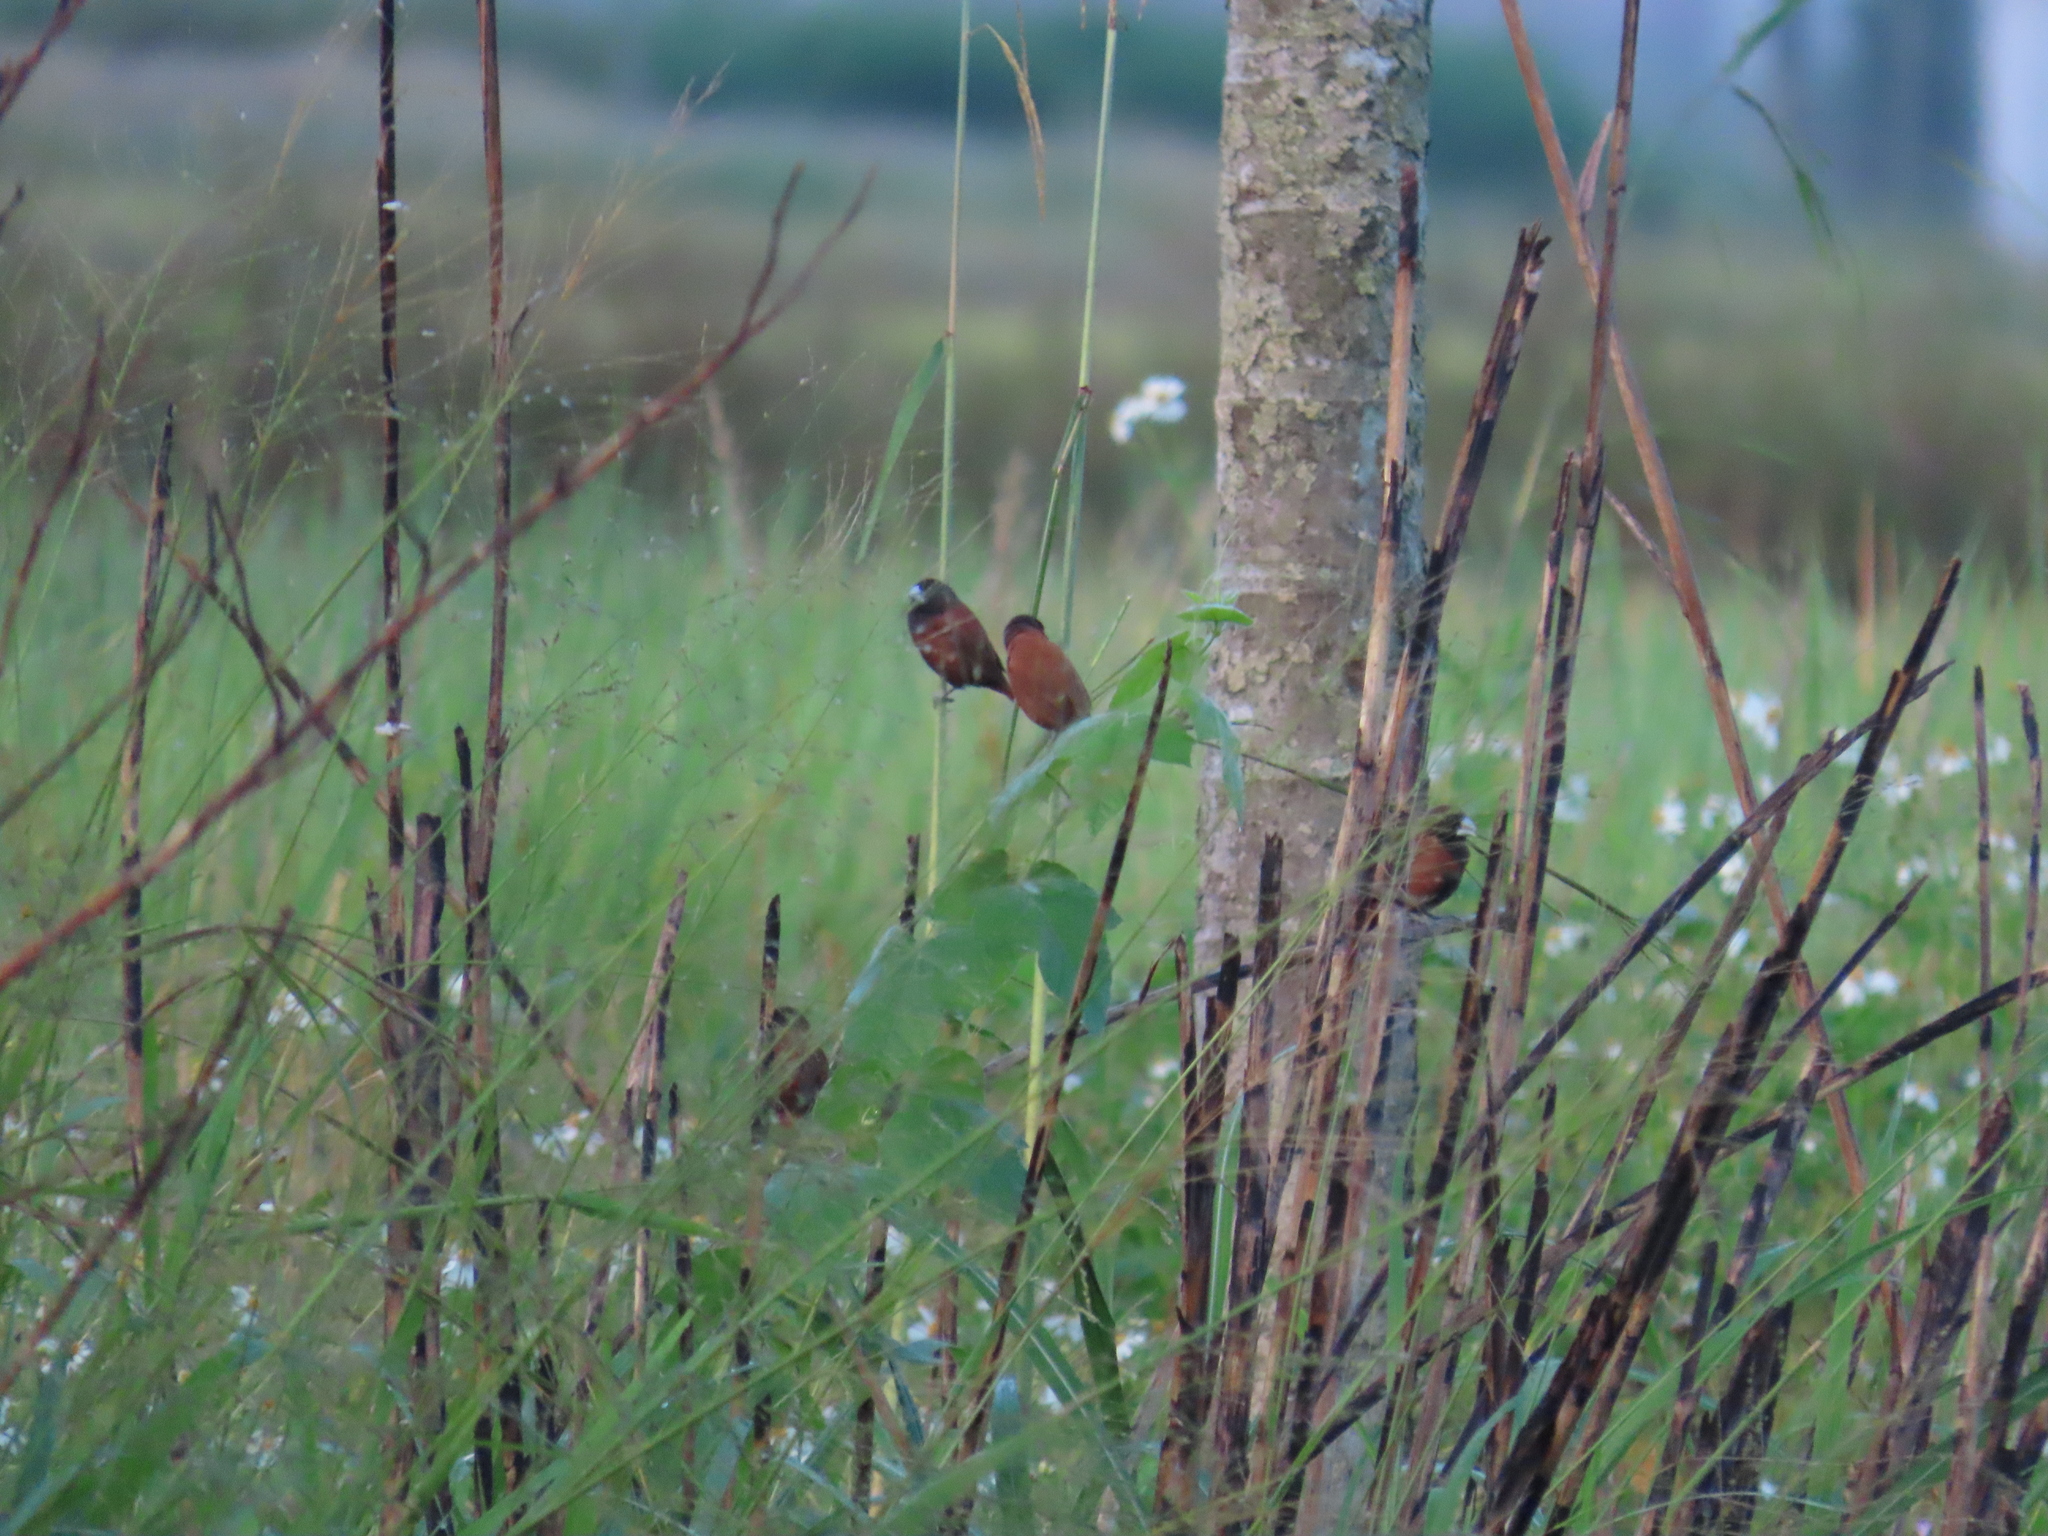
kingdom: Animalia
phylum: Chordata
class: Aves
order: Passeriformes
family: Estrildidae
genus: Lonchura
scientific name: Lonchura atricapilla
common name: Chestnut munia
